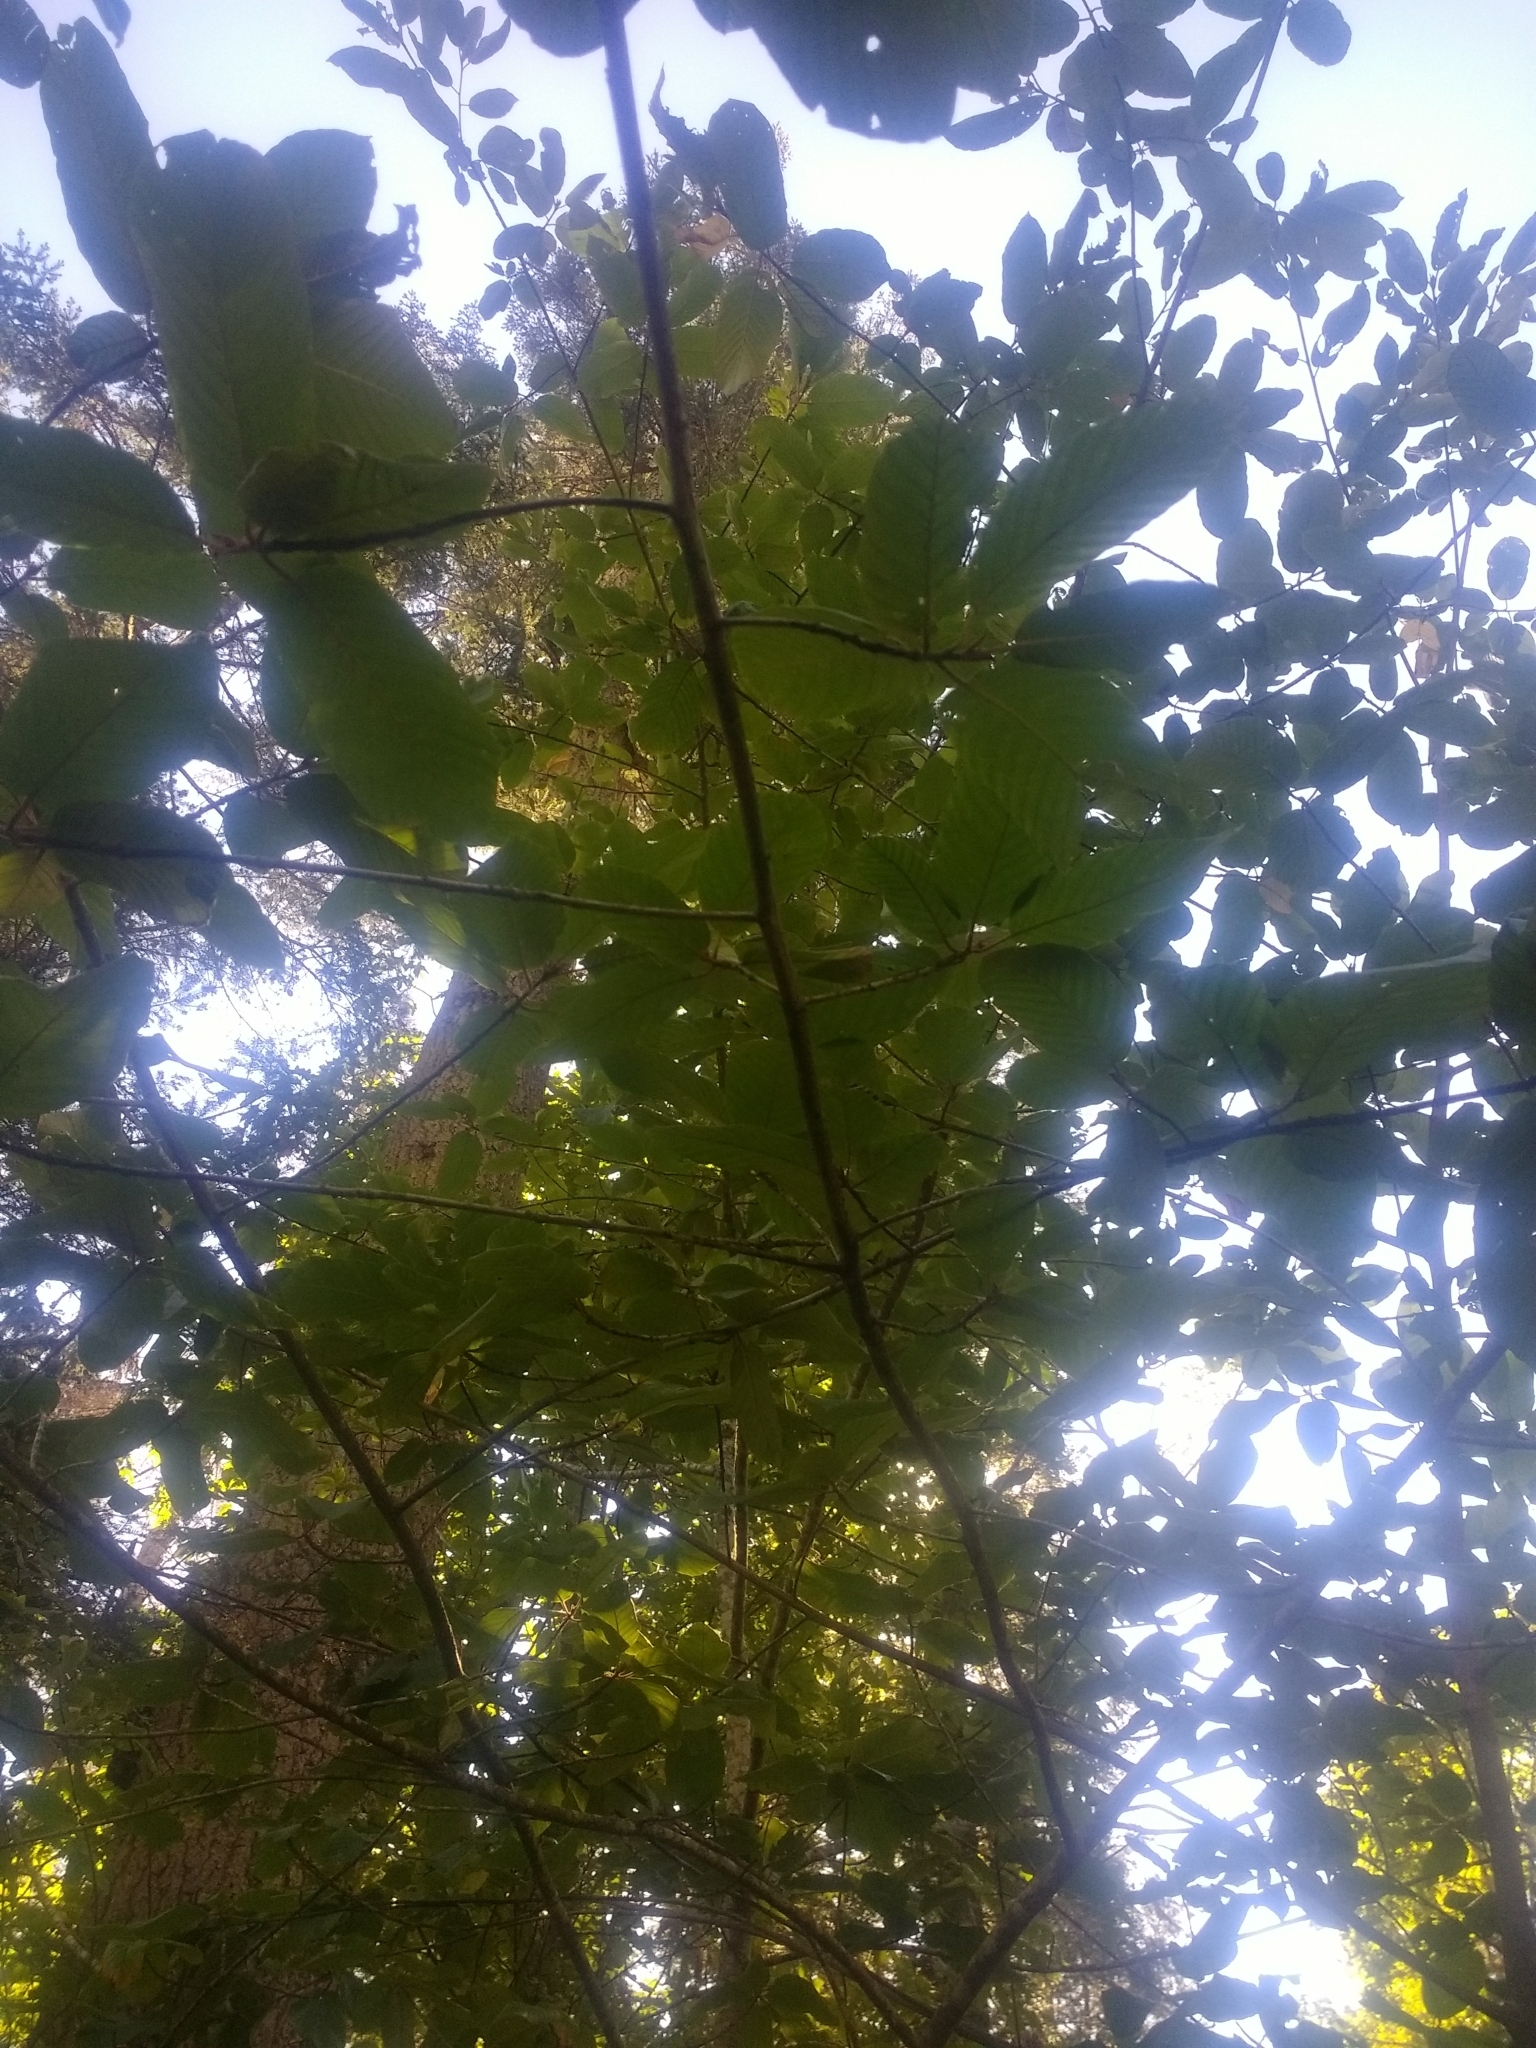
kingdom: Plantae
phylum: Tracheophyta
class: Magnoliopsida
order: Rosales
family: Rhamnaceae
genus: Frangula
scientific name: Frangula purshiana
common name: Cascara buckthorn
